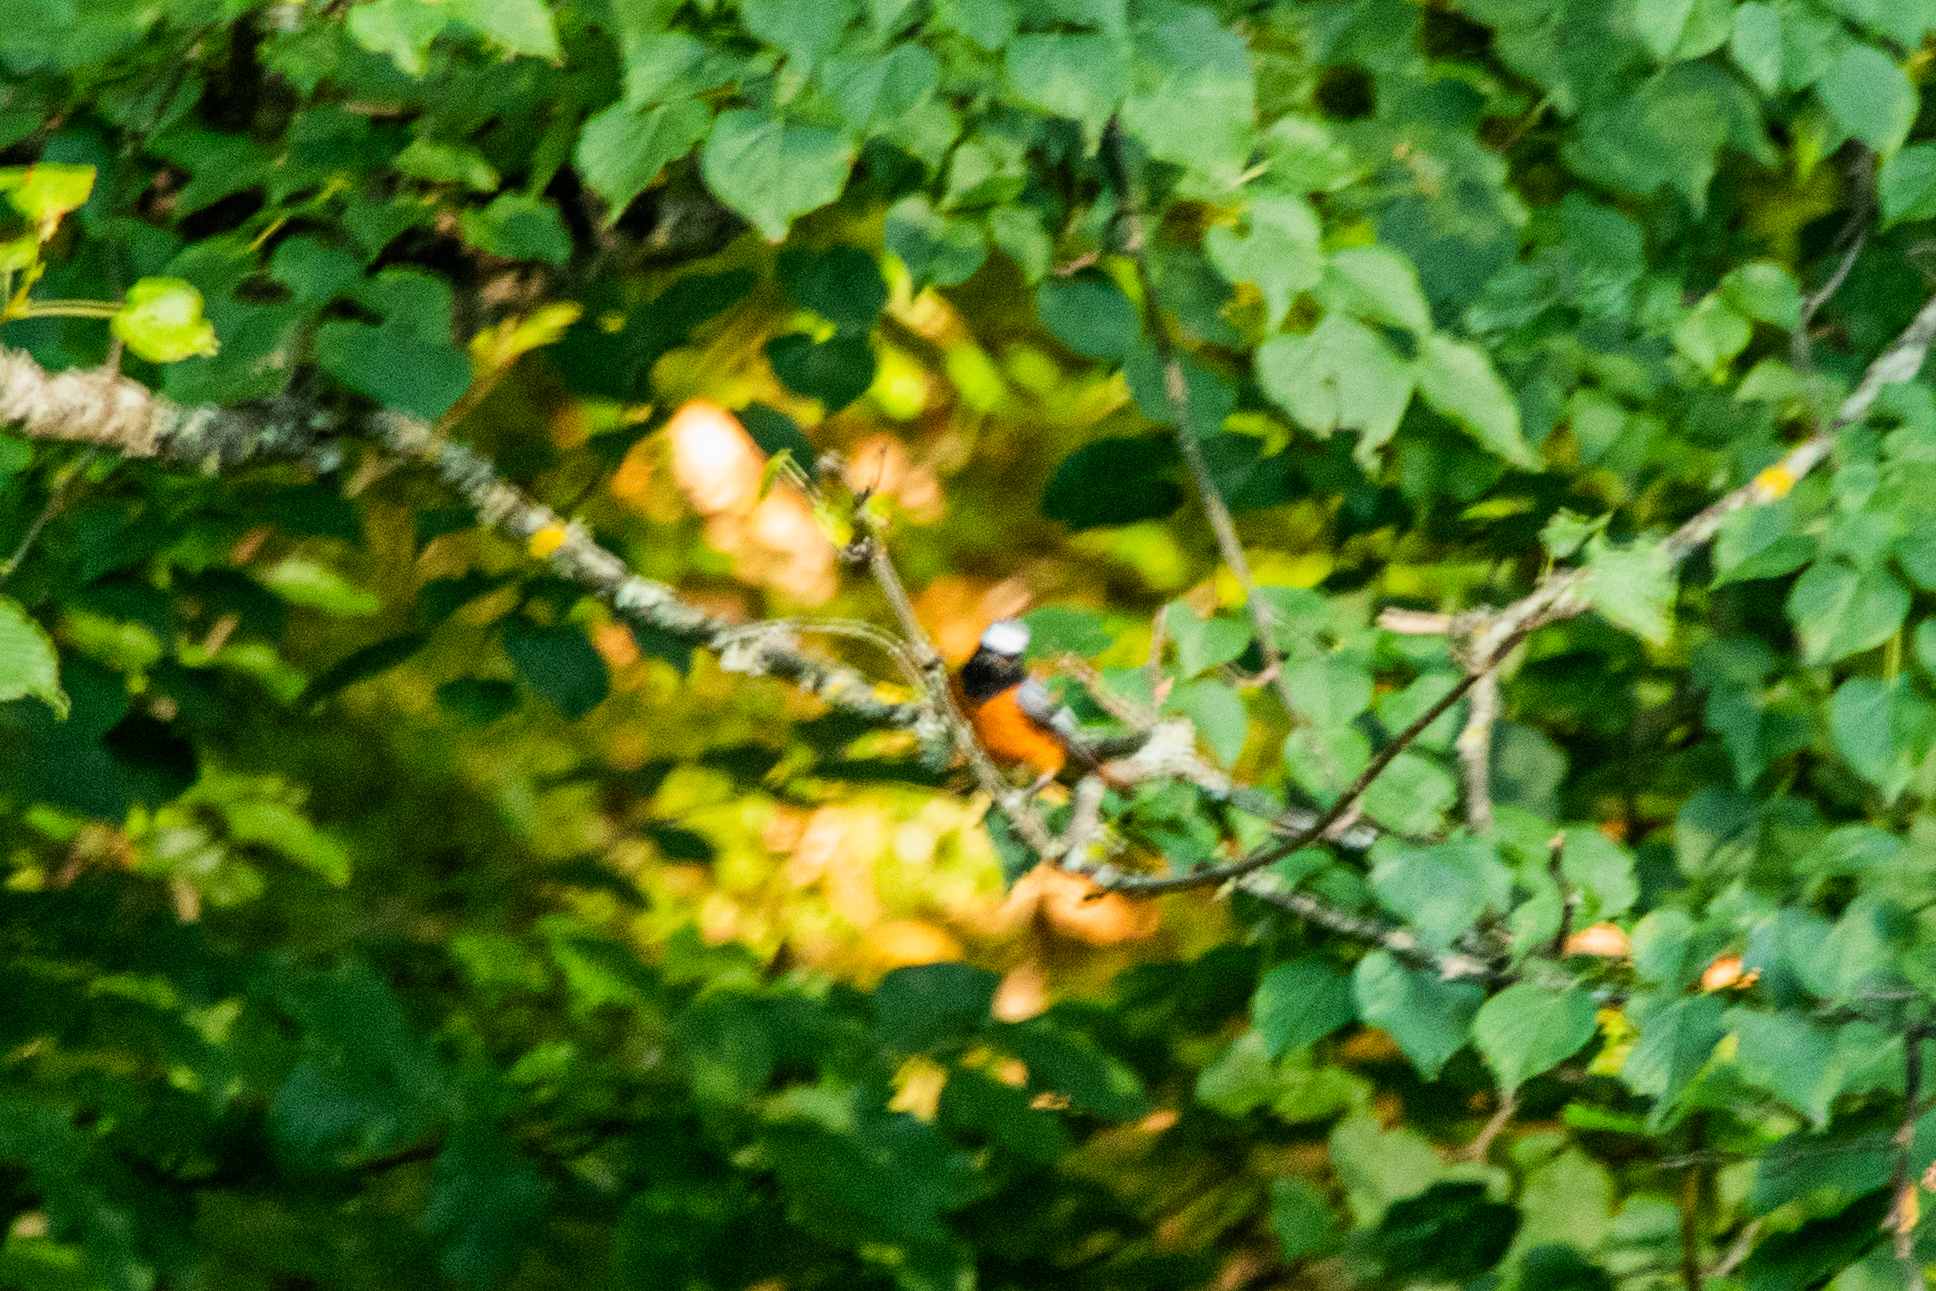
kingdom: Animalia
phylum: Chordata
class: Aves
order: Passeriformes
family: Muscicapidae
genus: Phoenicurus
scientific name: Phoenicurus phoenicurus
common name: Common redstart
